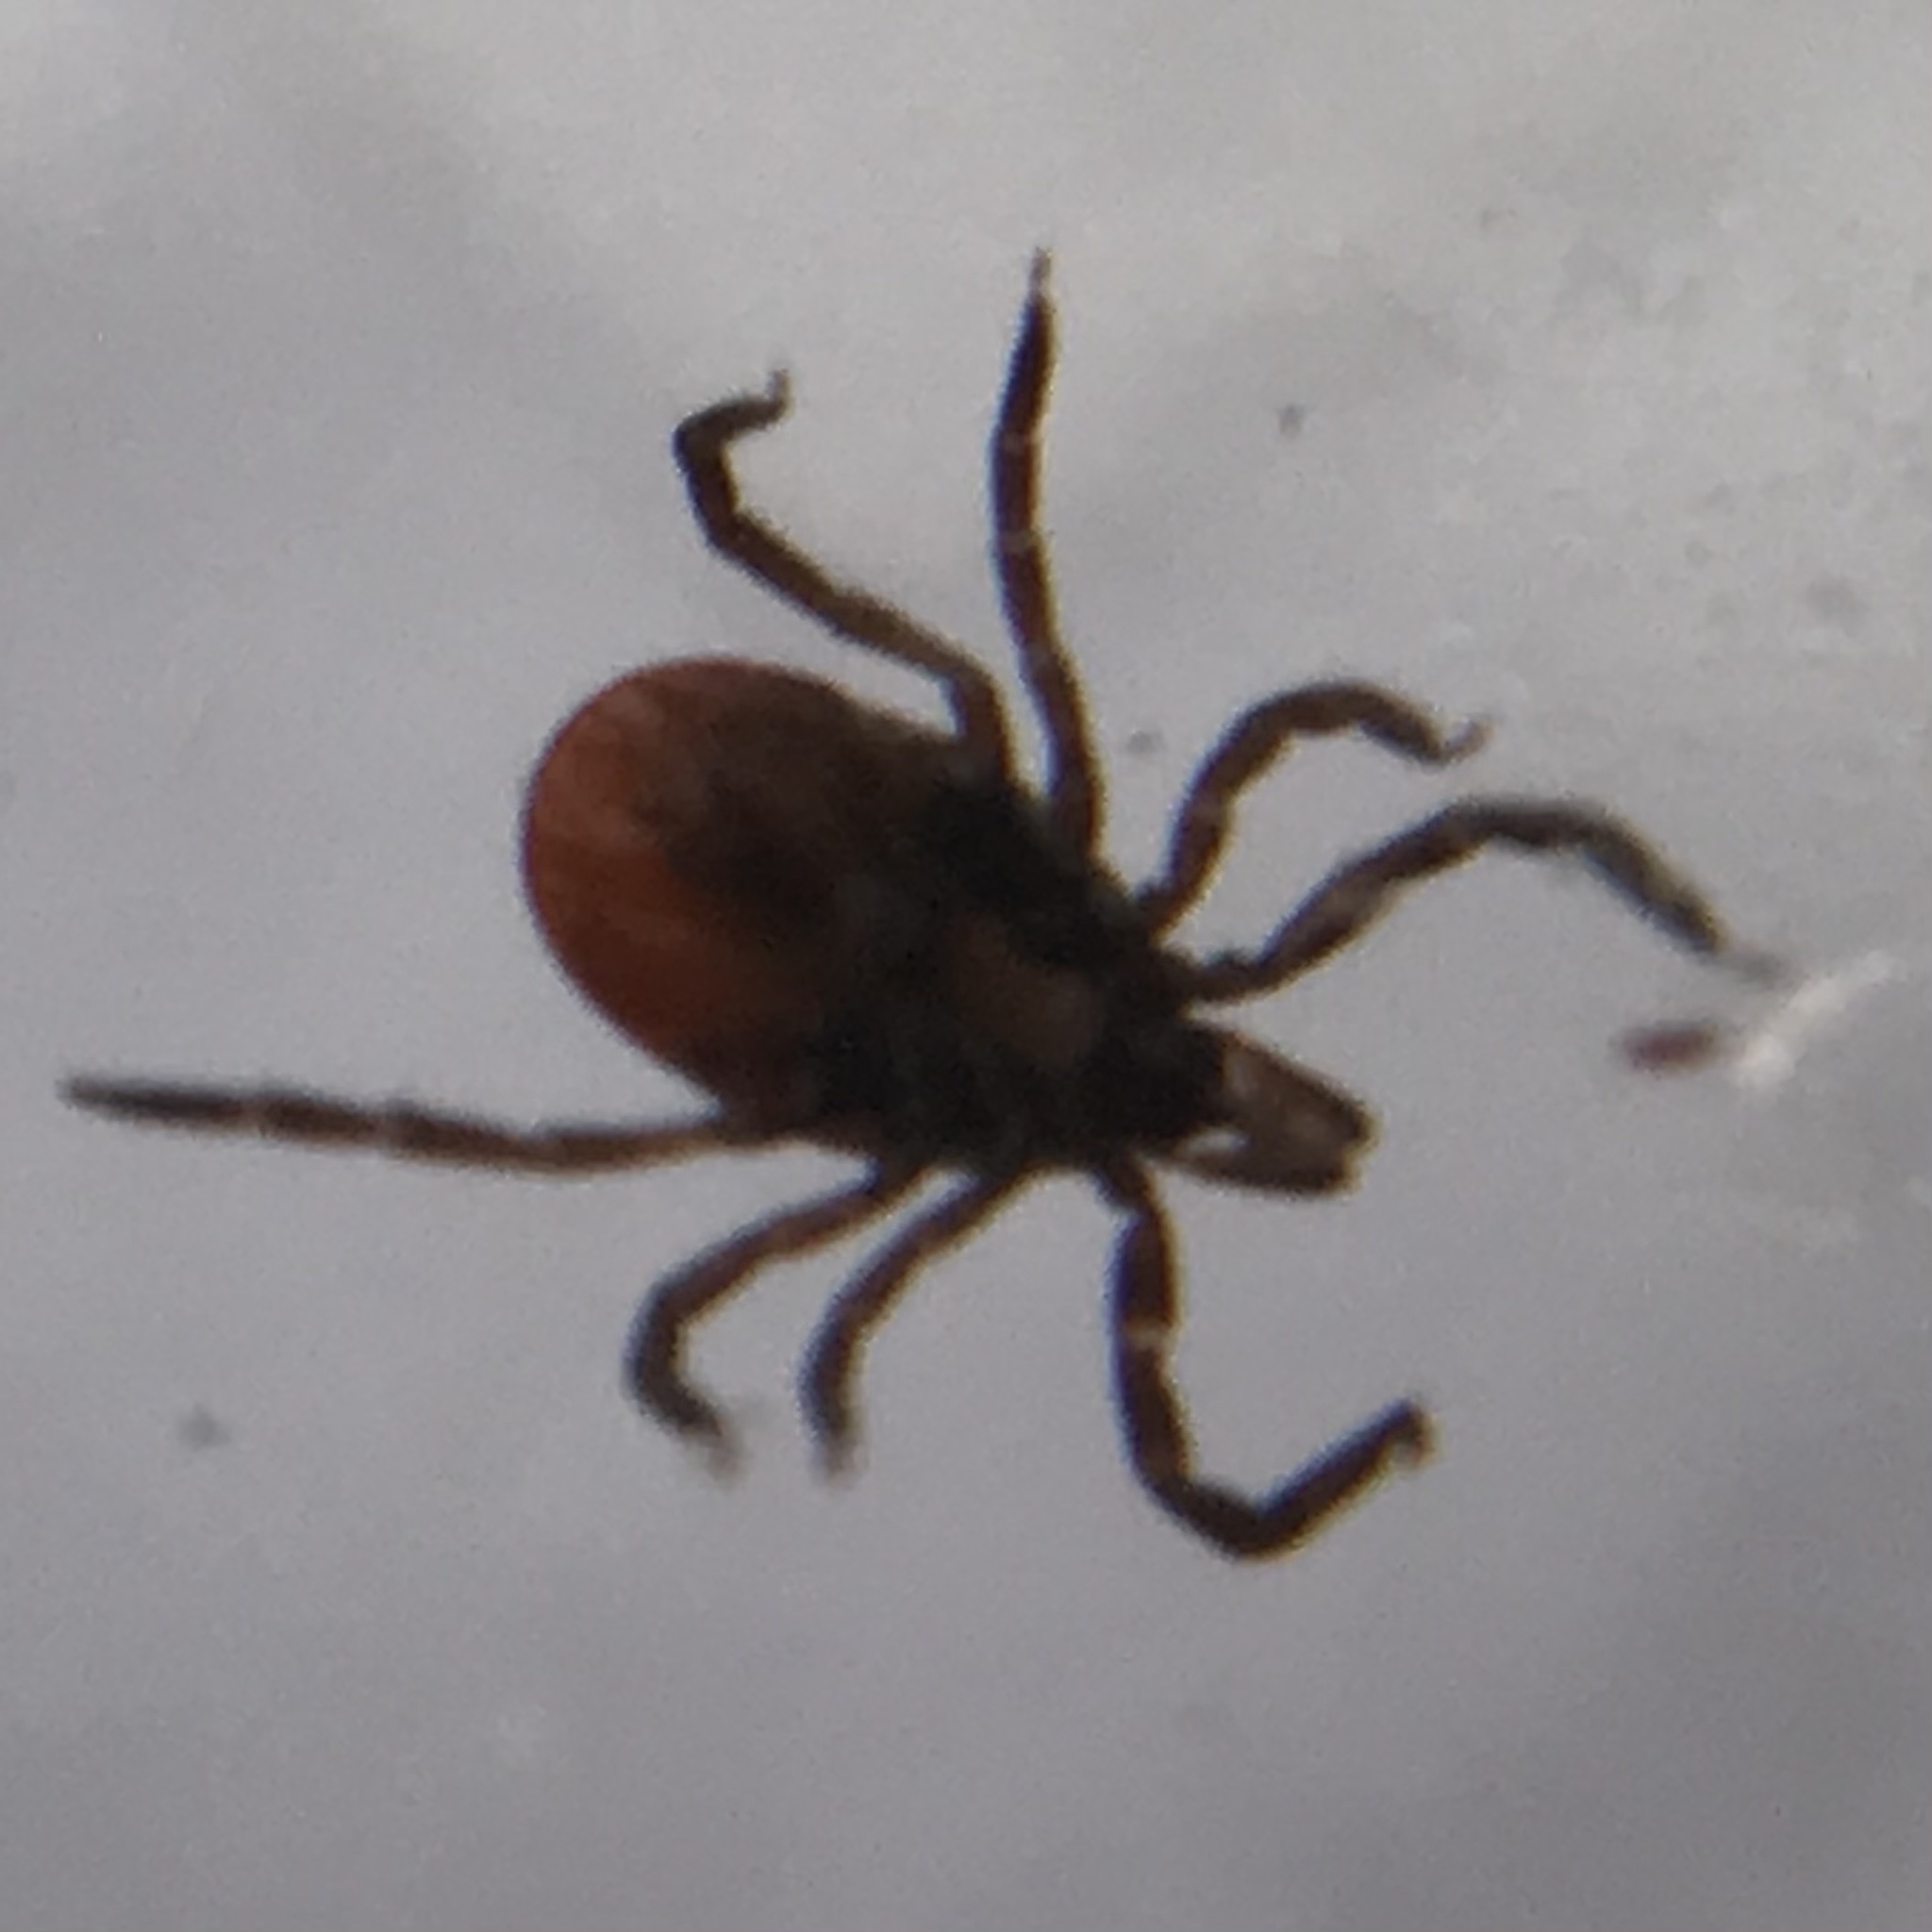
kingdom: Animalia
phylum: Arthropoda
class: Arachnida
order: Ixodida
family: Ixodidae
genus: Ixodes
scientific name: Ixodes scapularis
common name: Black legged tick
